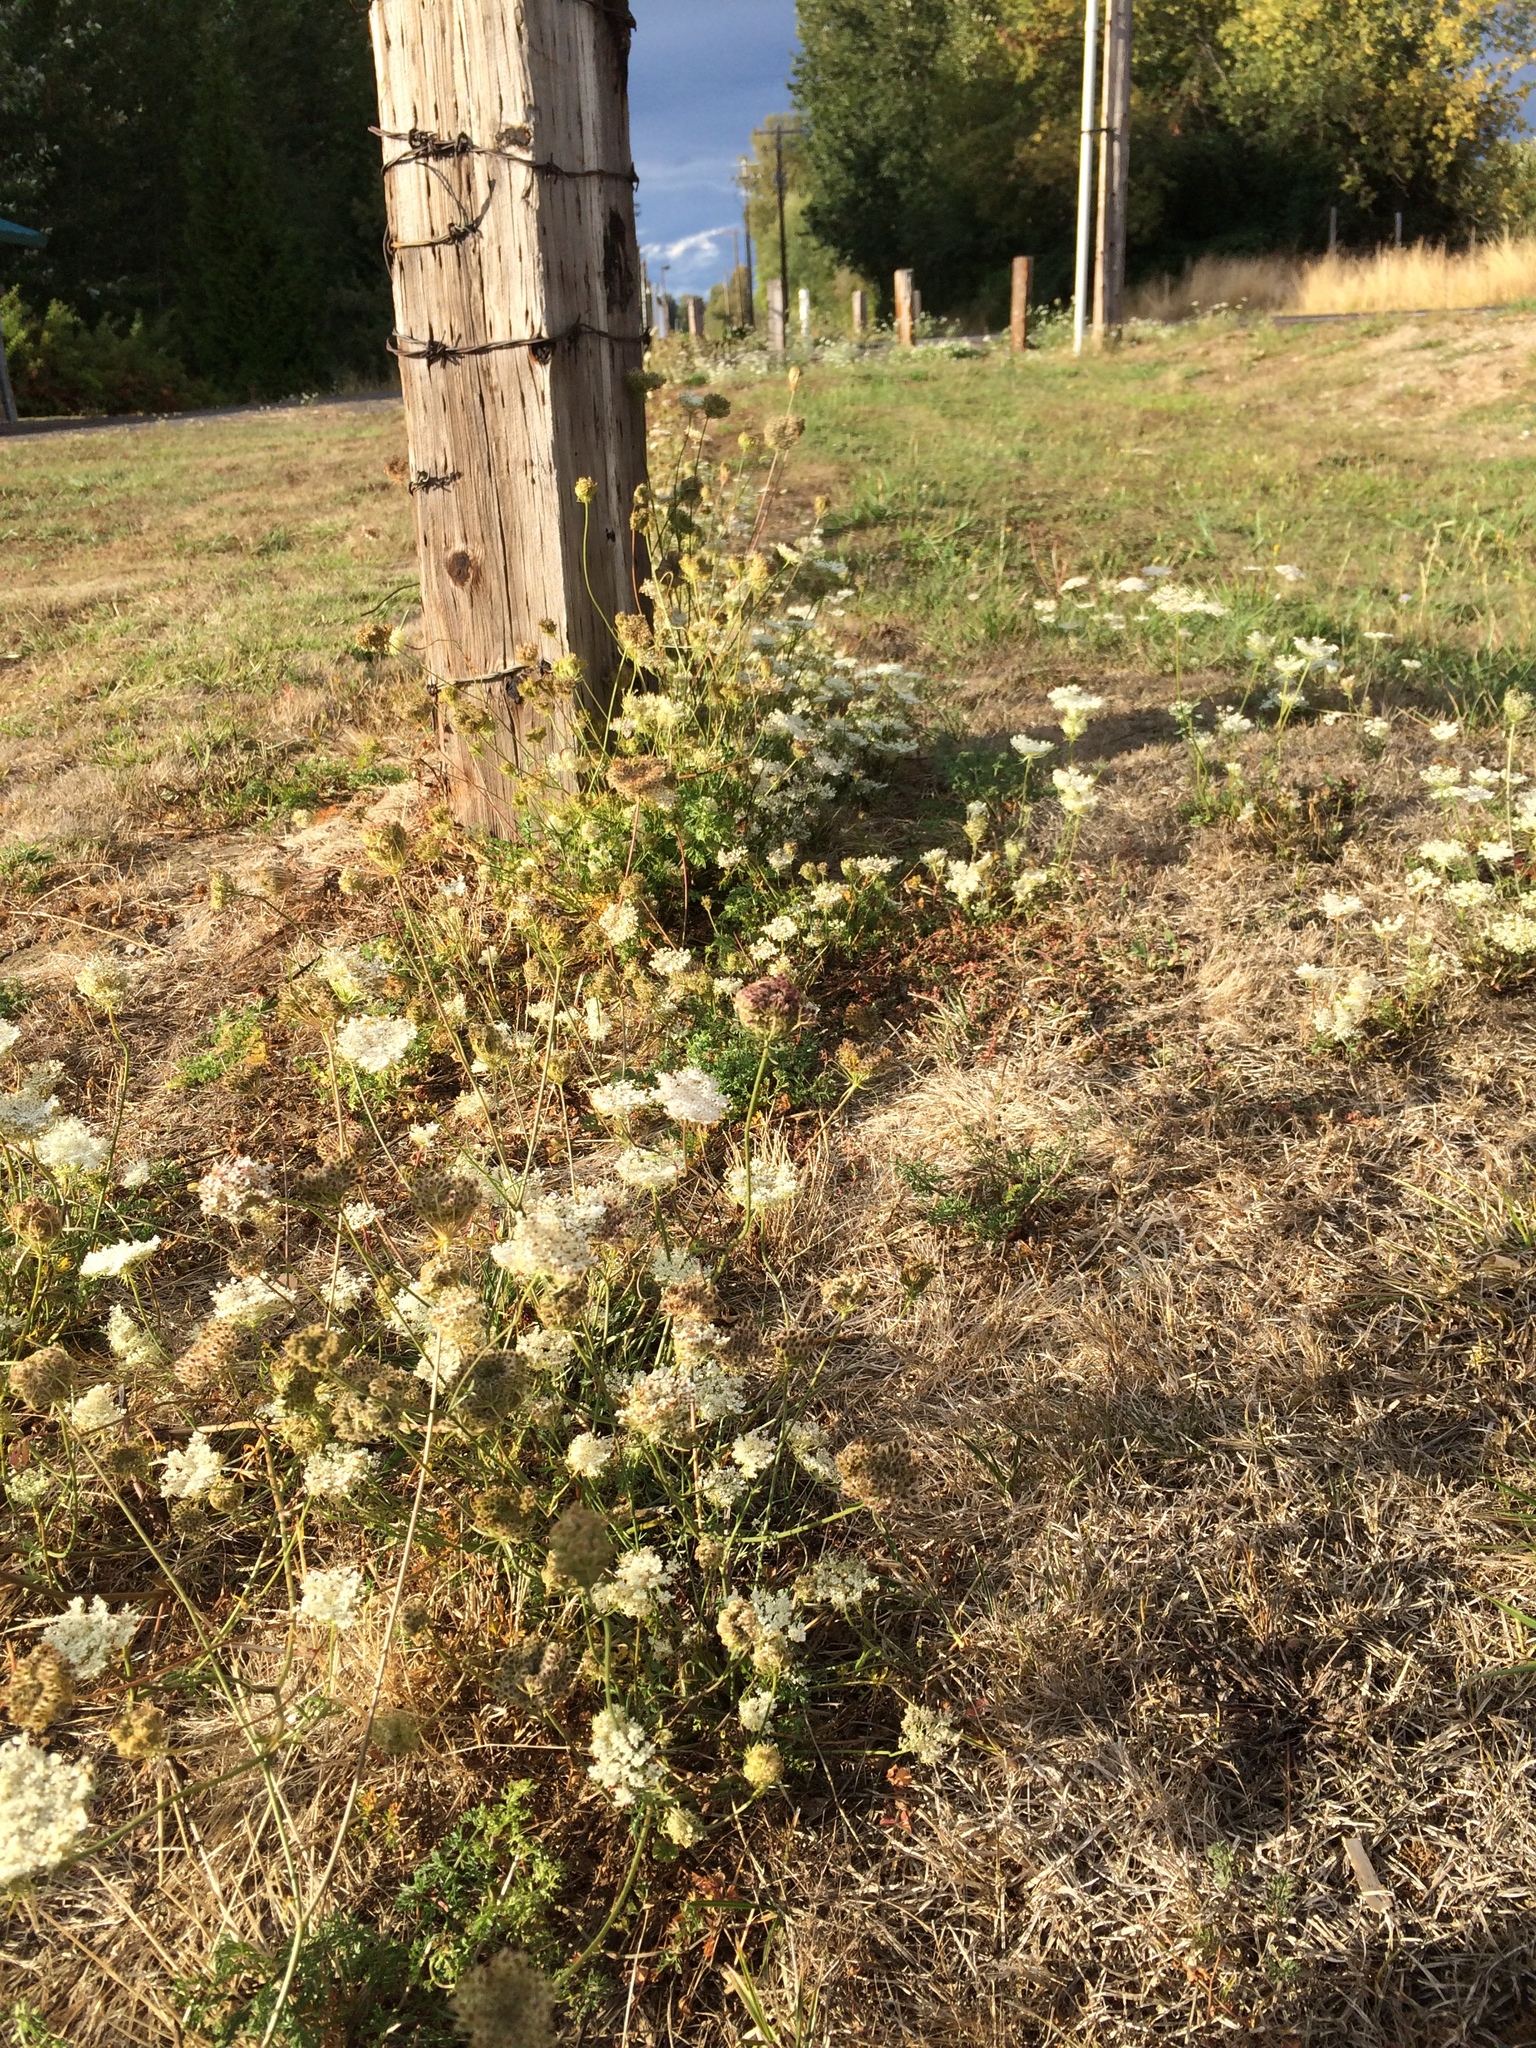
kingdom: Plantae
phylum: Tracheophyta
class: Magnoliopsida
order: Apiales
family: Apiaceae
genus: Daucus
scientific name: Daucus carota
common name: Wild carrot
